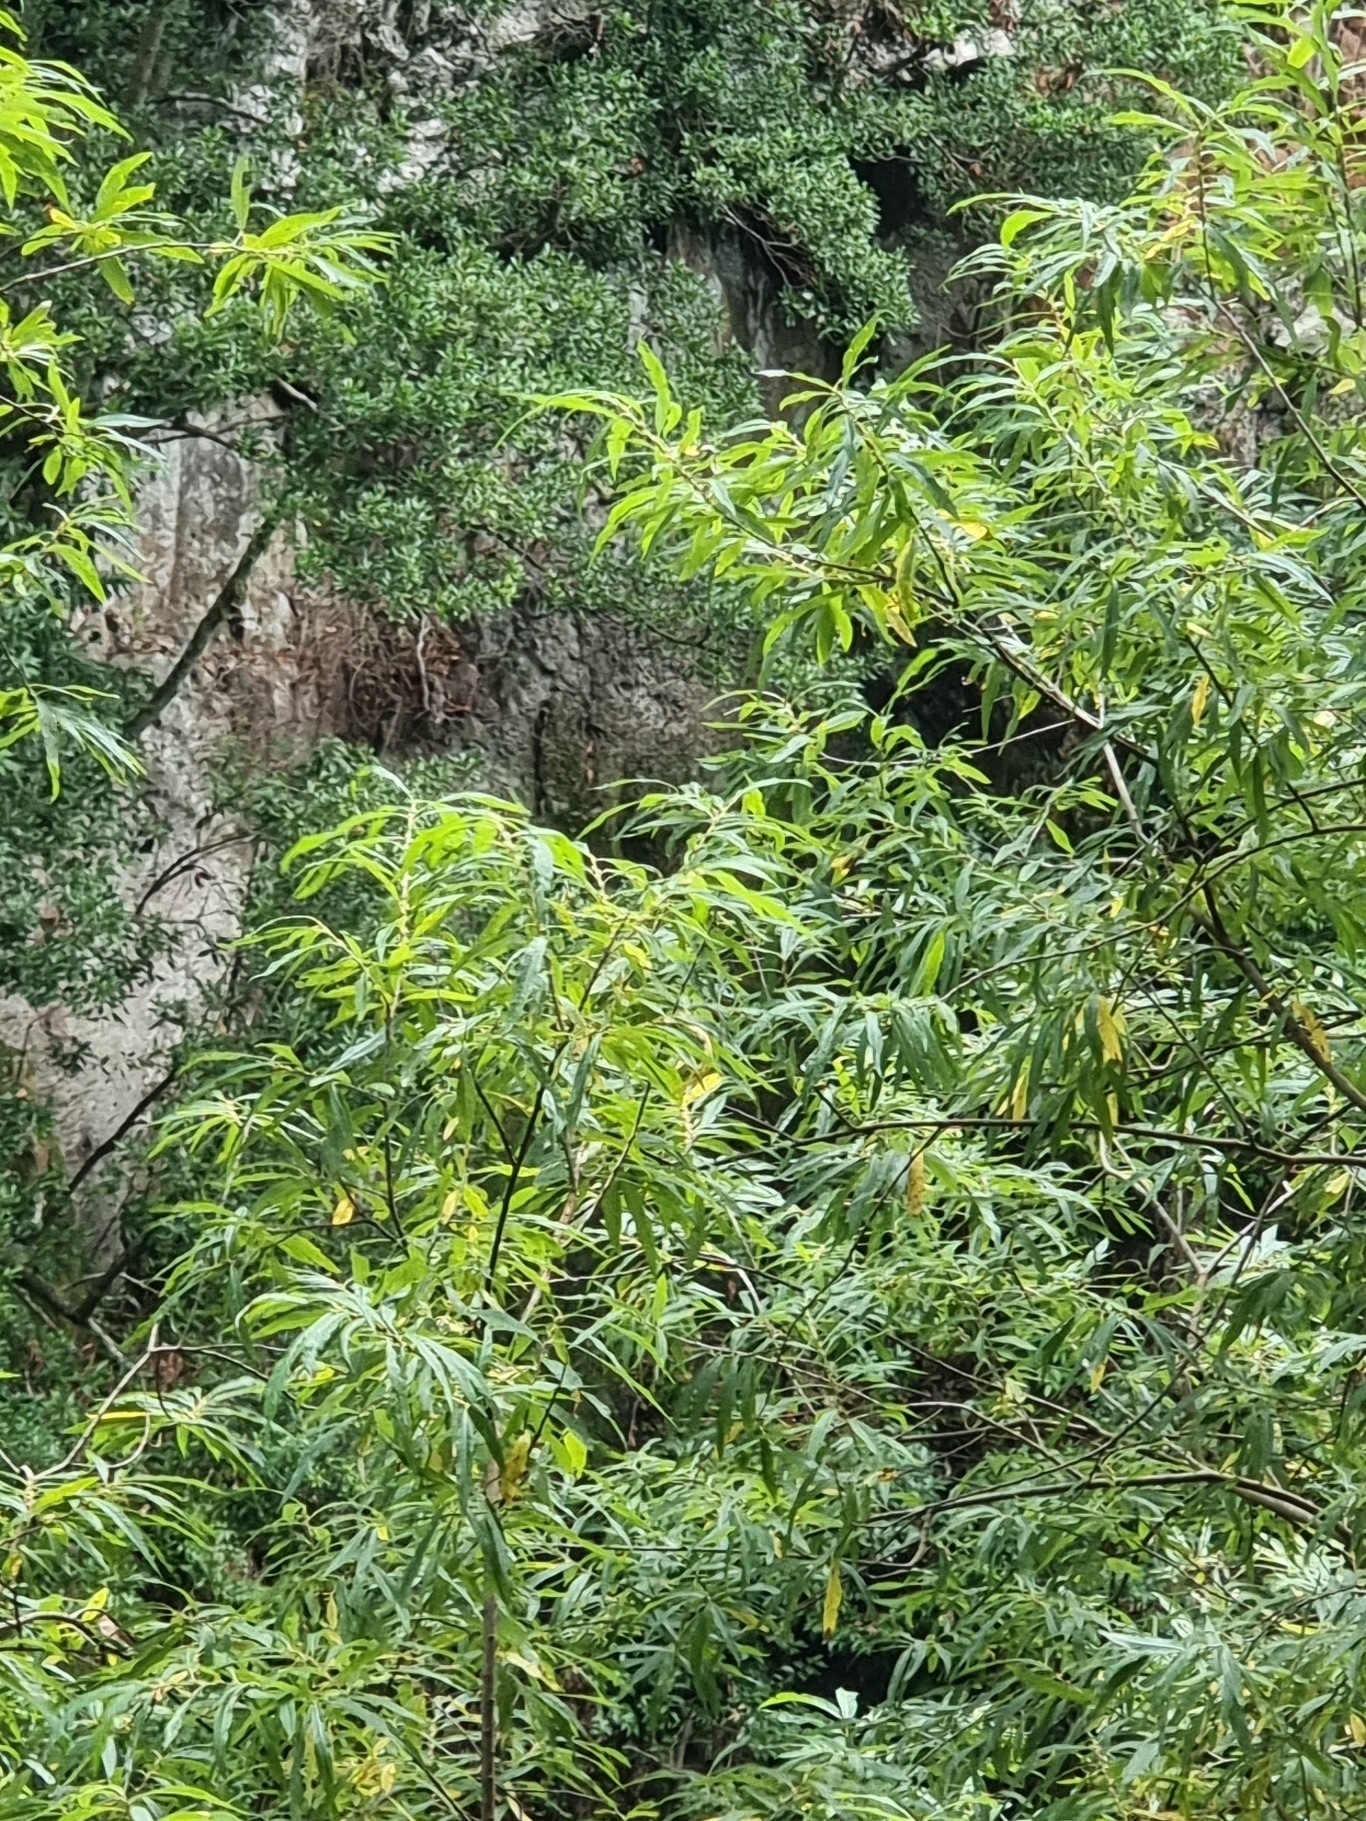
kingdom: Plantae
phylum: Tracheophyta
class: Magnoliopsida
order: Malpighiales
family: Salicaceae
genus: Salix
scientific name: Salix canariensis
